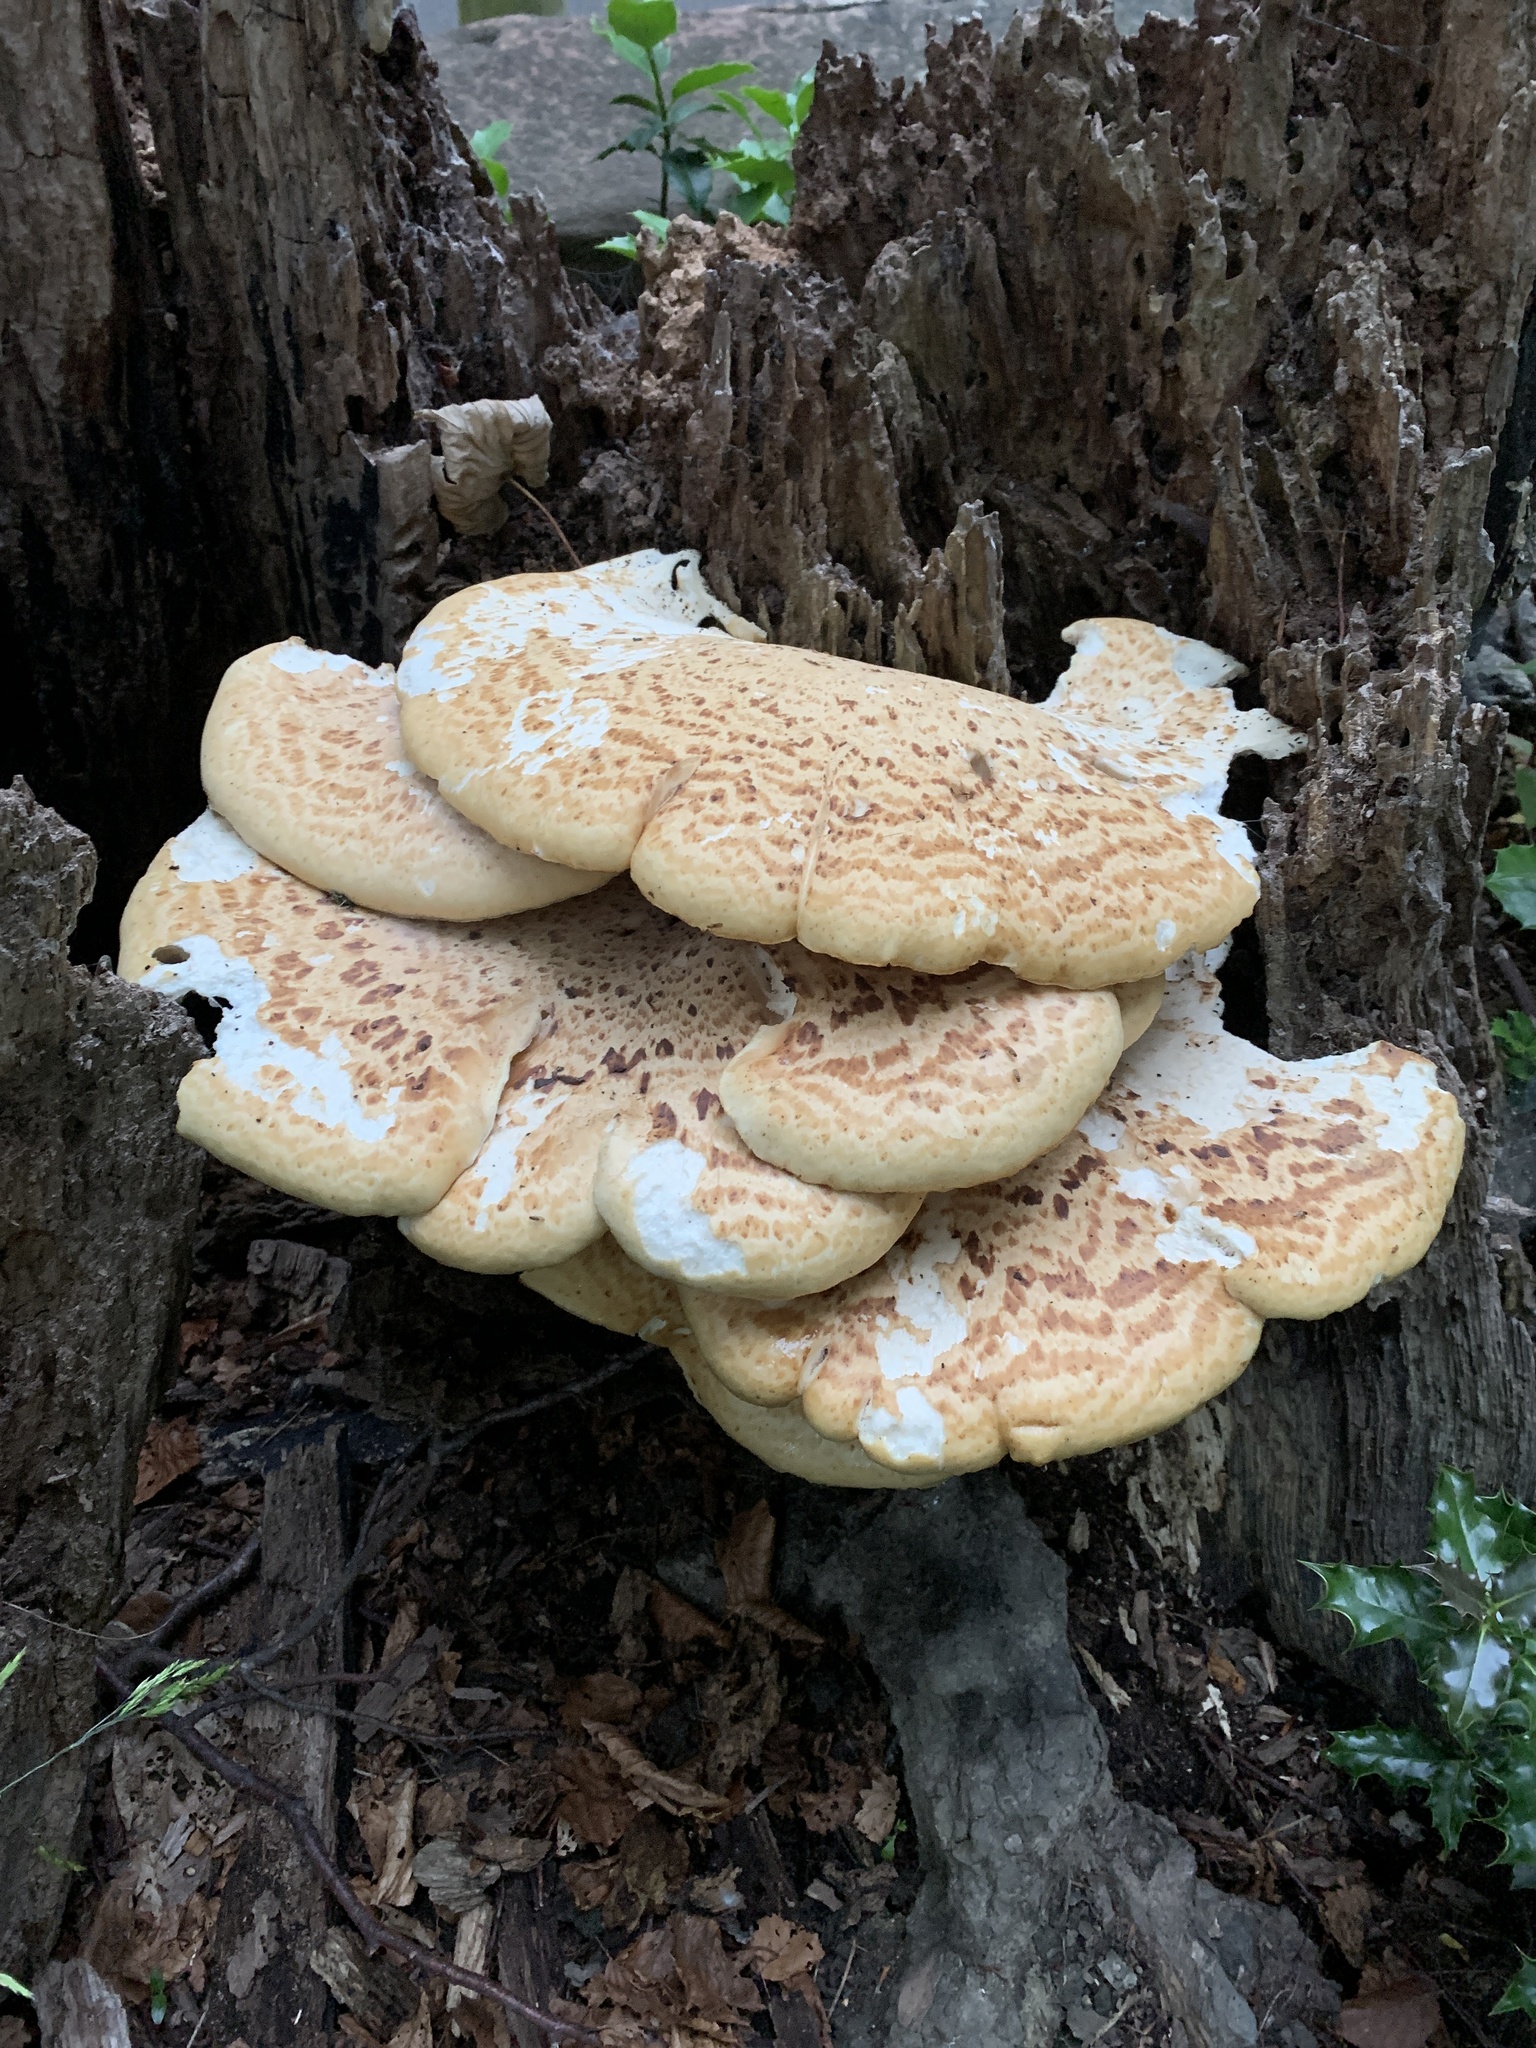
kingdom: Fungi
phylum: Basidiomycota
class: Agaricomycetes
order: Polyporales
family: Polyporaceae
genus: Cerioporus
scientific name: Cerioporus squamosus
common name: Dryad's saddle
